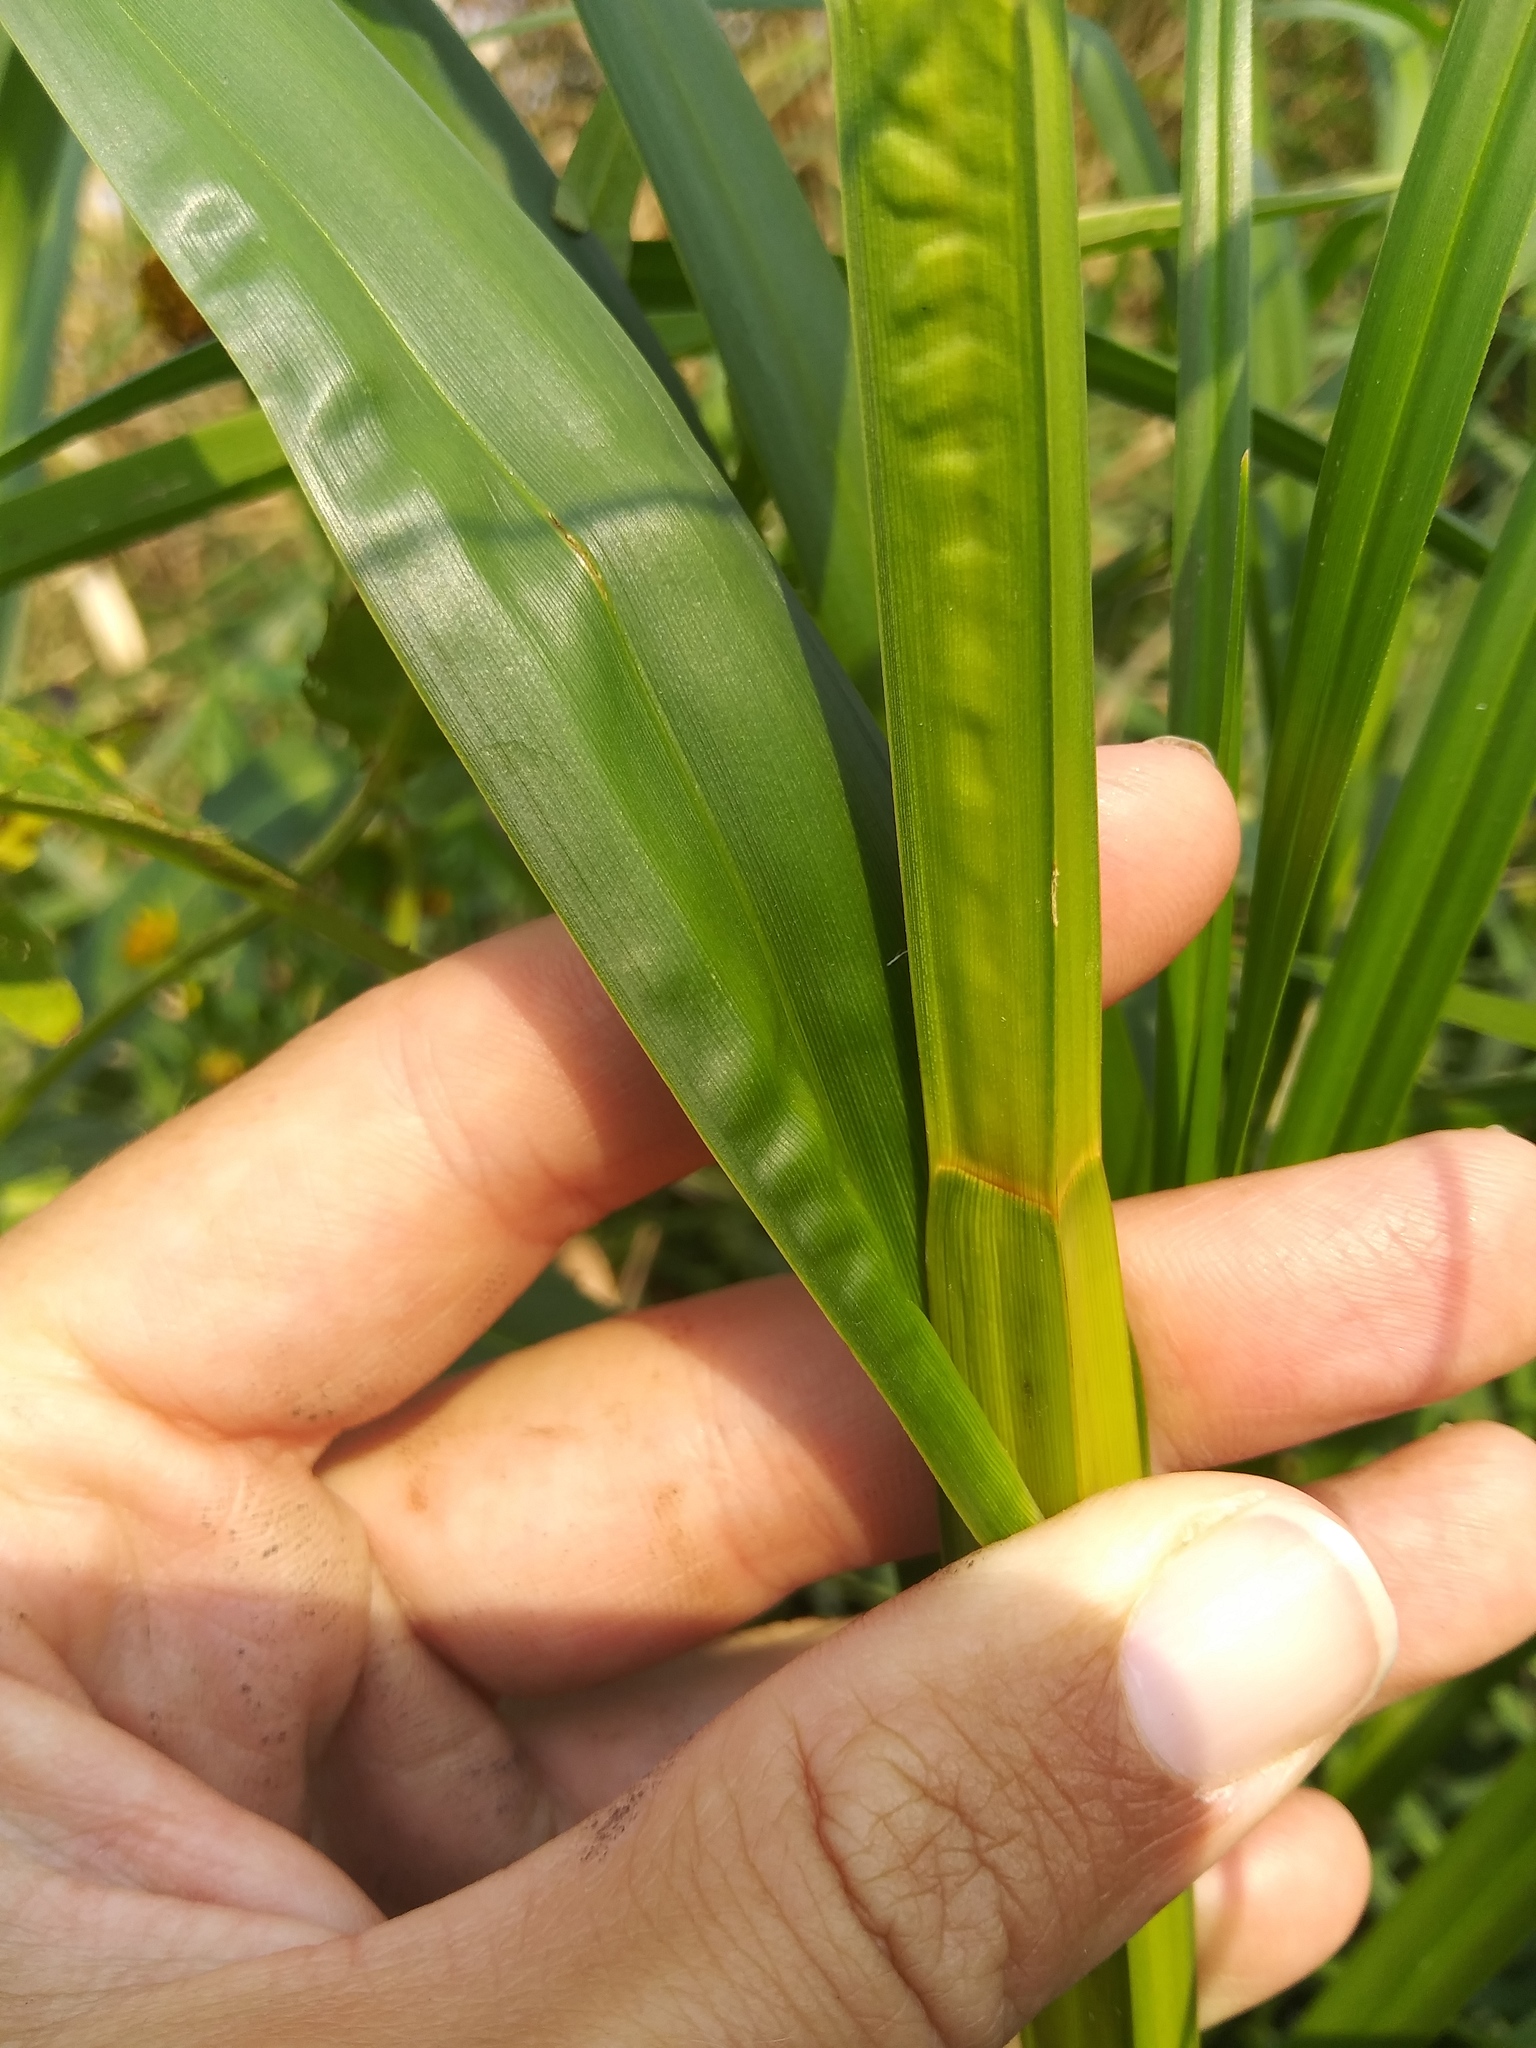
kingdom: Plantae
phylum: Tracheophyta
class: Liliopsida
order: Poales
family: Cyperaceae
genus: Bolboschoenus
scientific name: Bolboschoenus fluviatilis
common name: River bulrush
